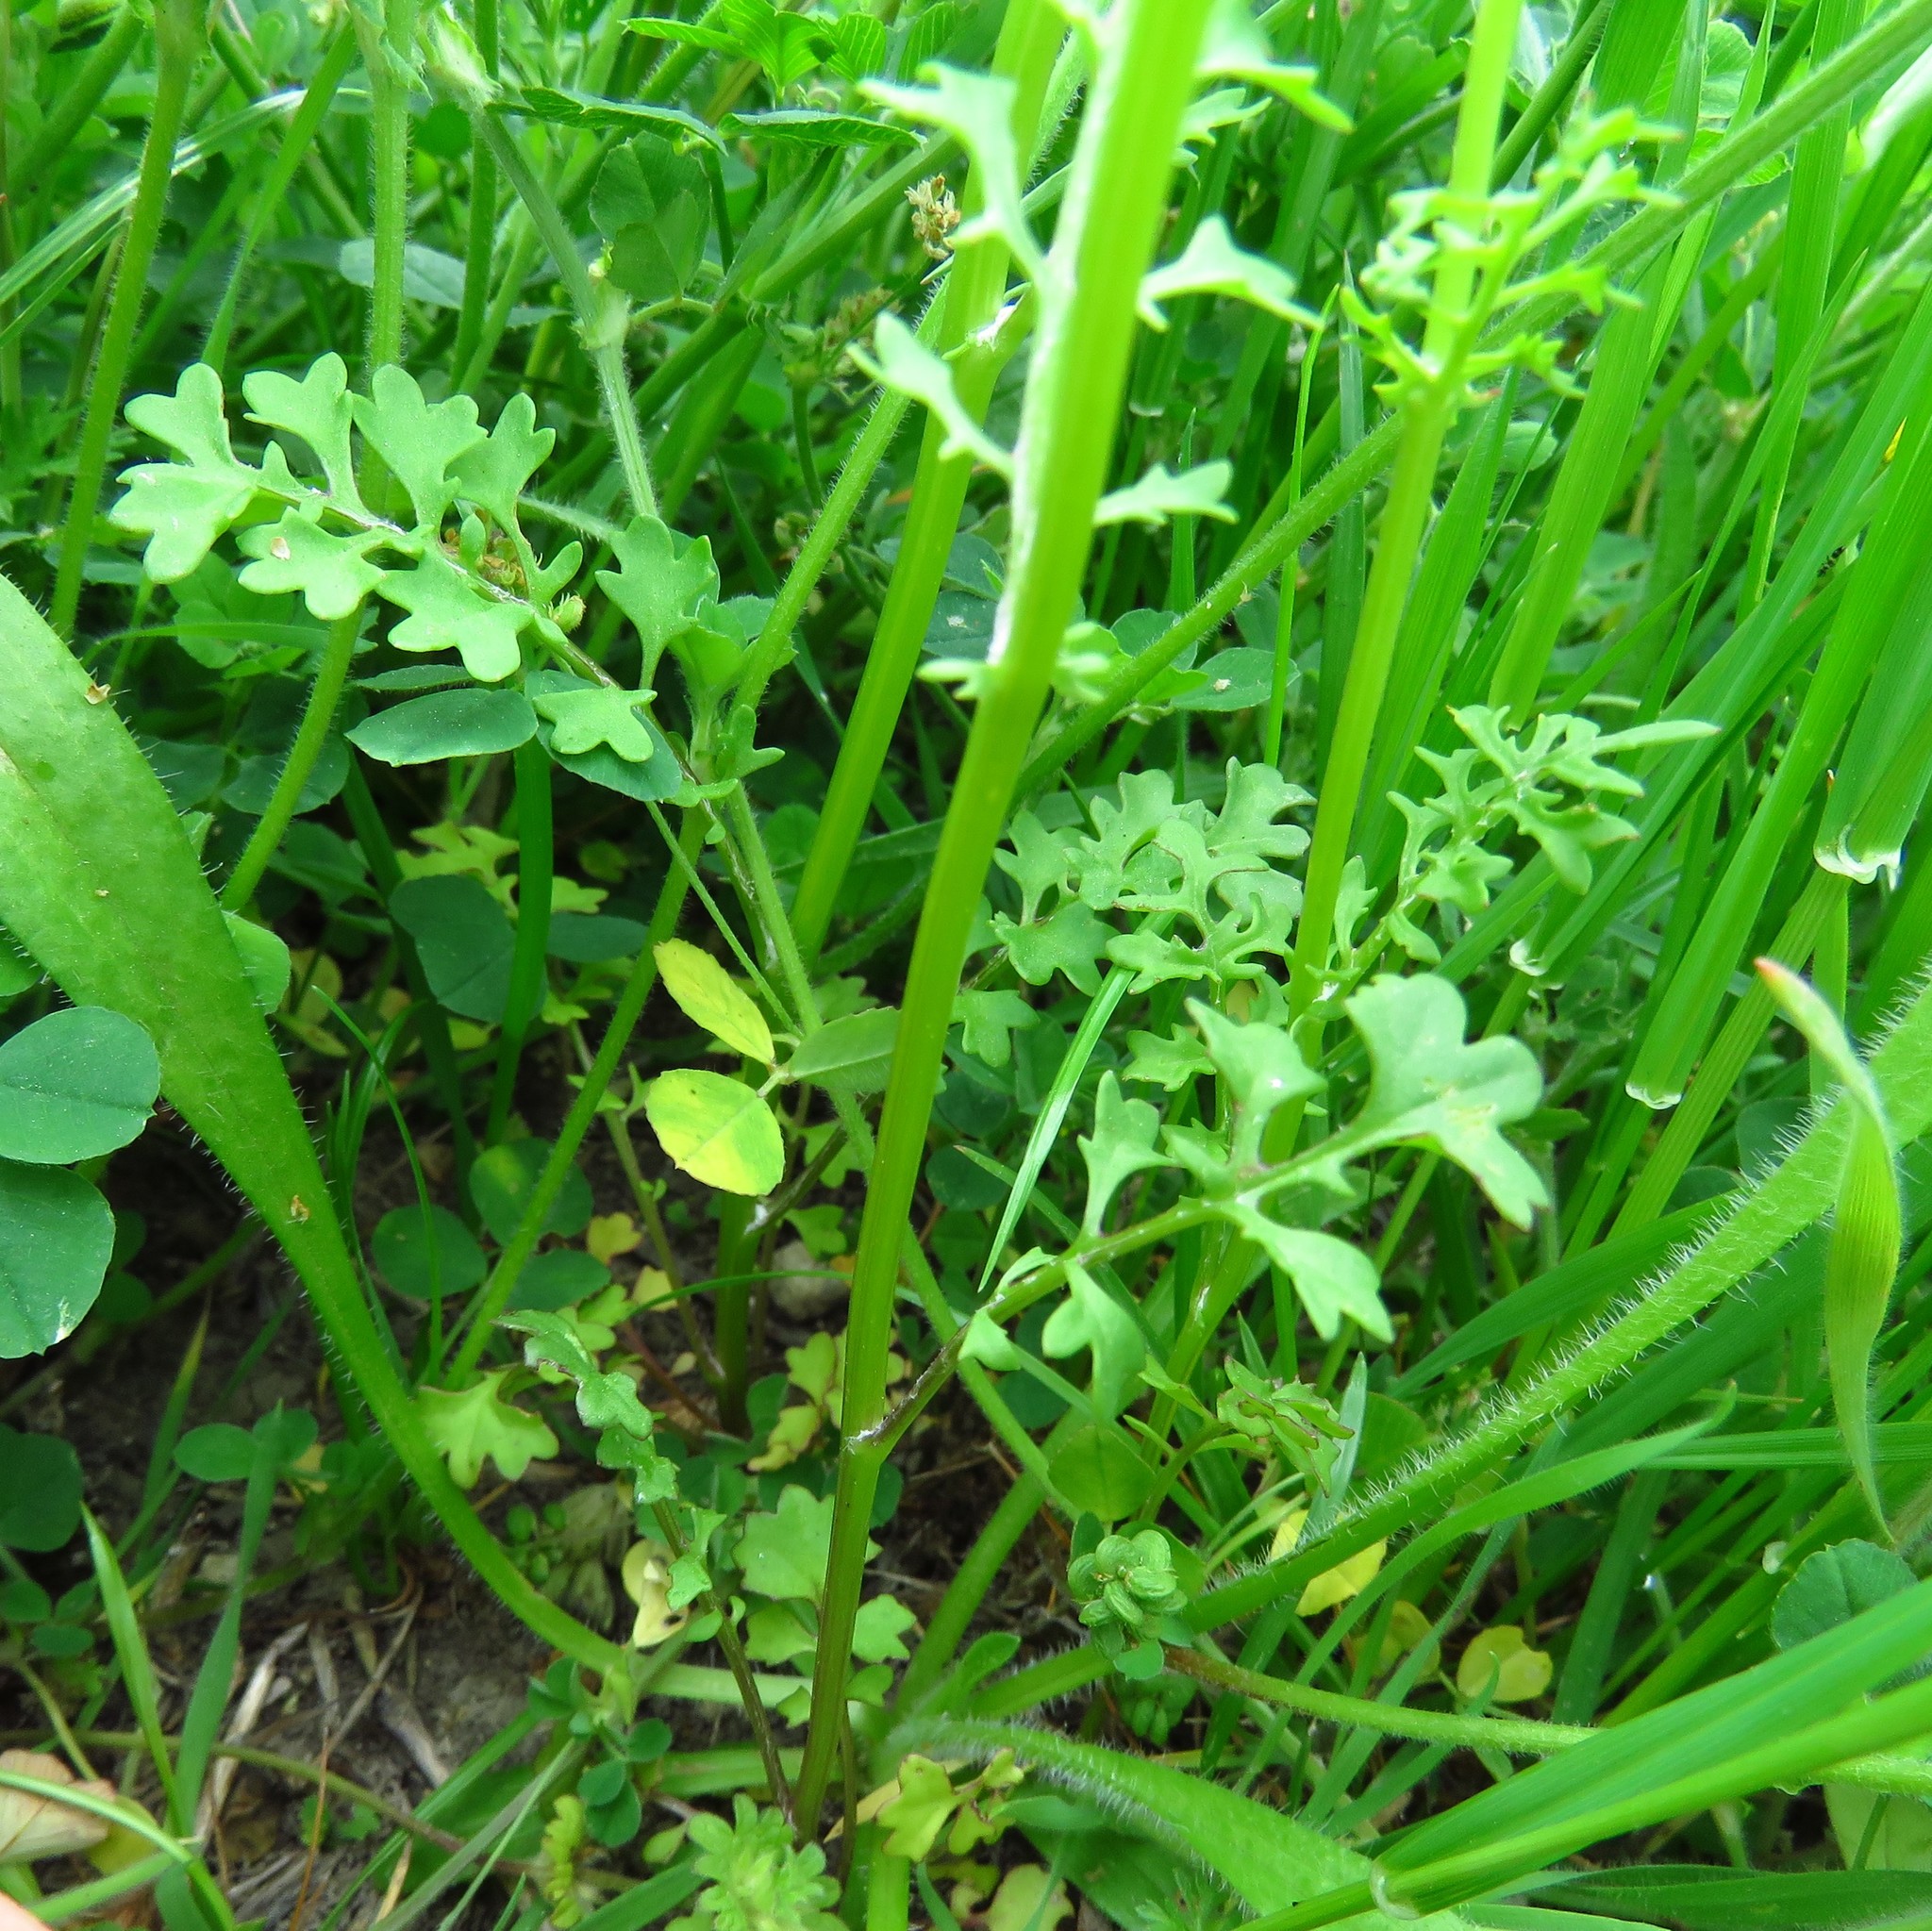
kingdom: Plantae
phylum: Tracheophyta
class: Magnoliopsida
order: Asterales
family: Asteraceae
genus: Packera
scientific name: Packera tampicana
